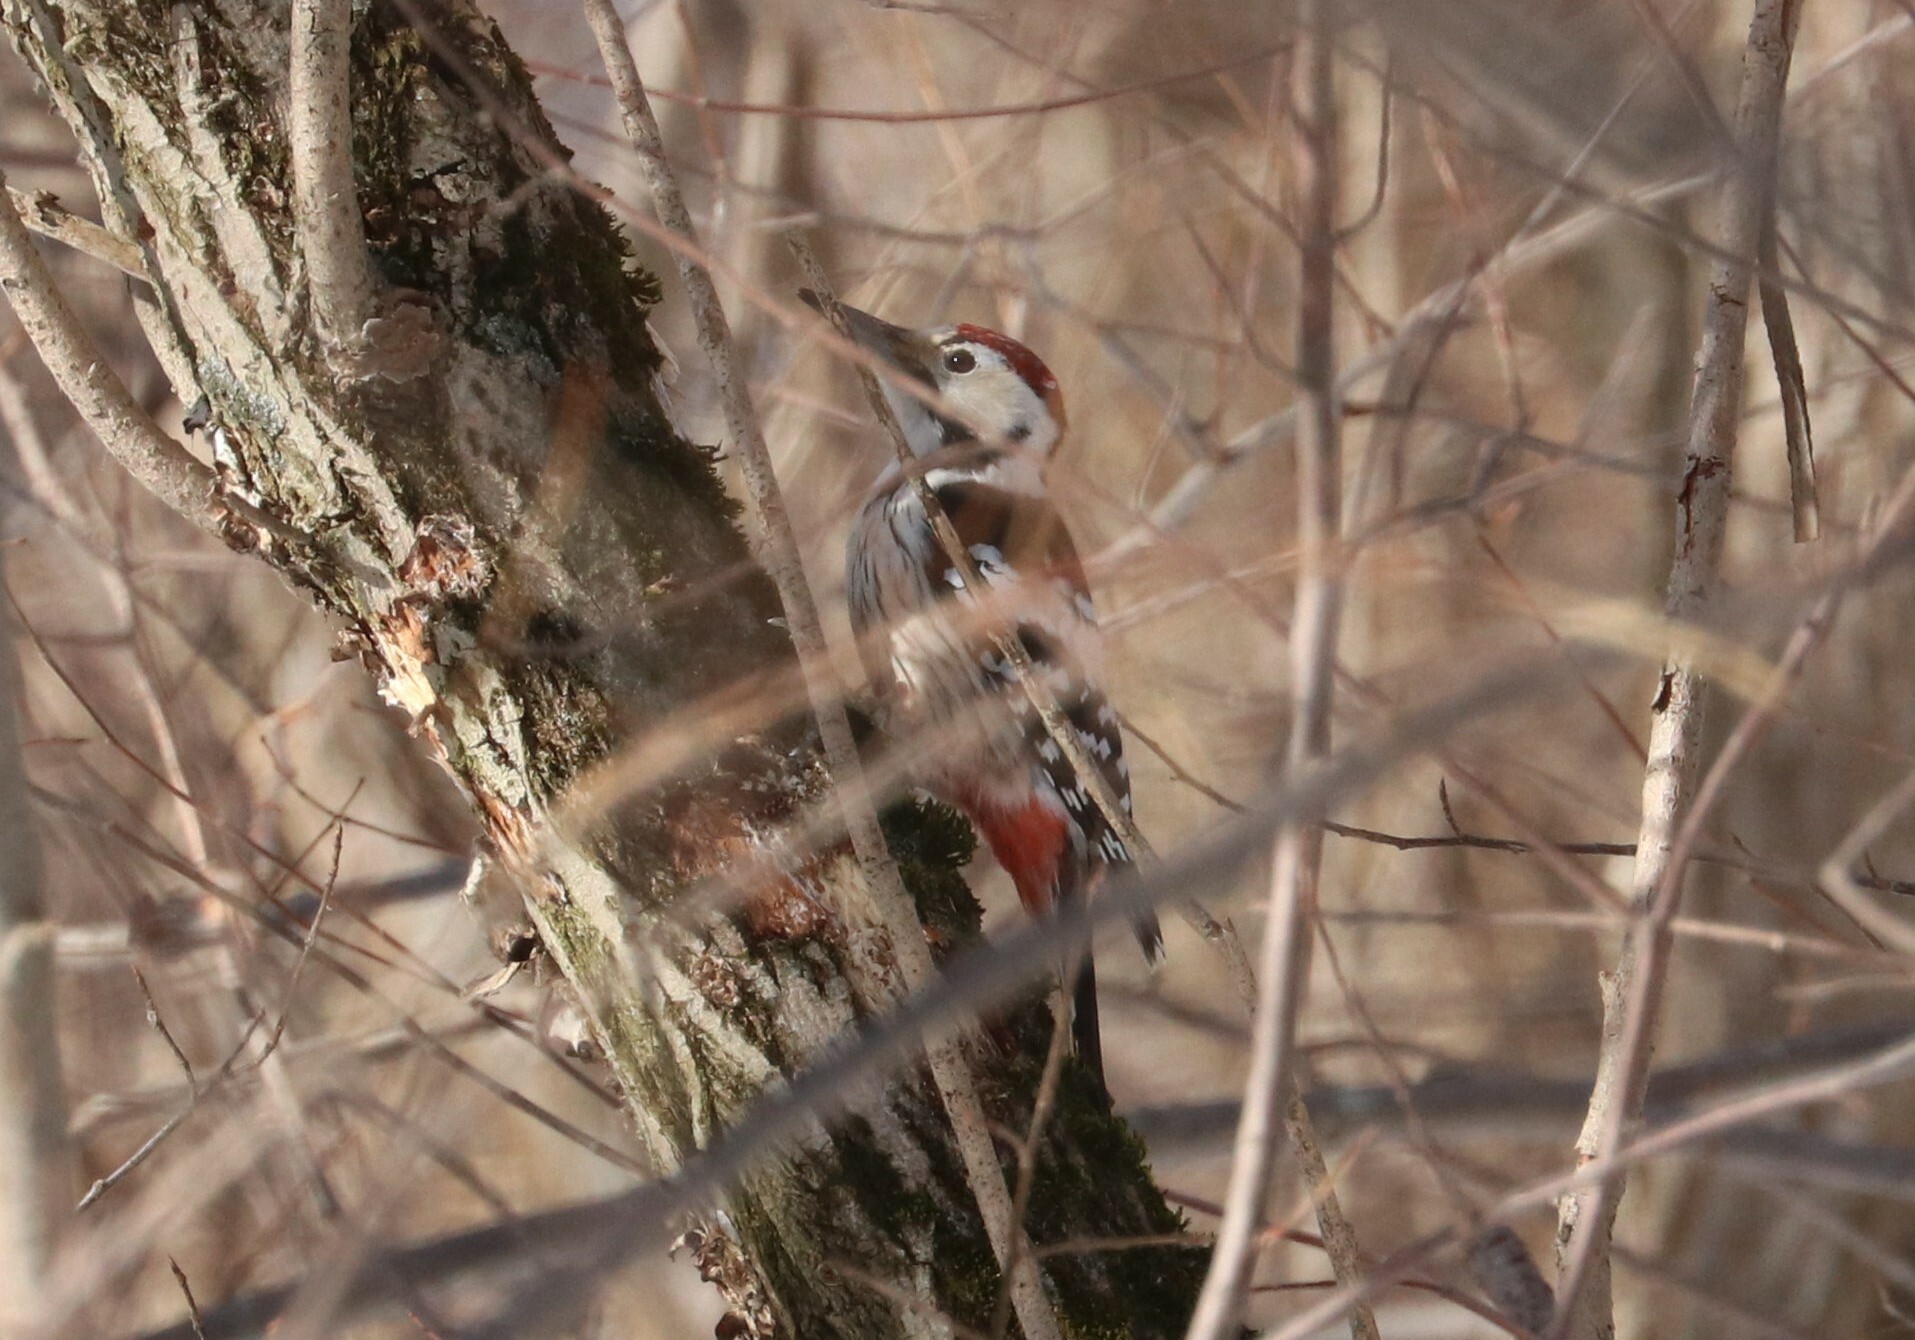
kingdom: Animalia
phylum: Chordata
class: Aves
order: Piciformes
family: Picidae
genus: Dendrocopos
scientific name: Dendrocopos leucotos
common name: White-backed woodpecker
